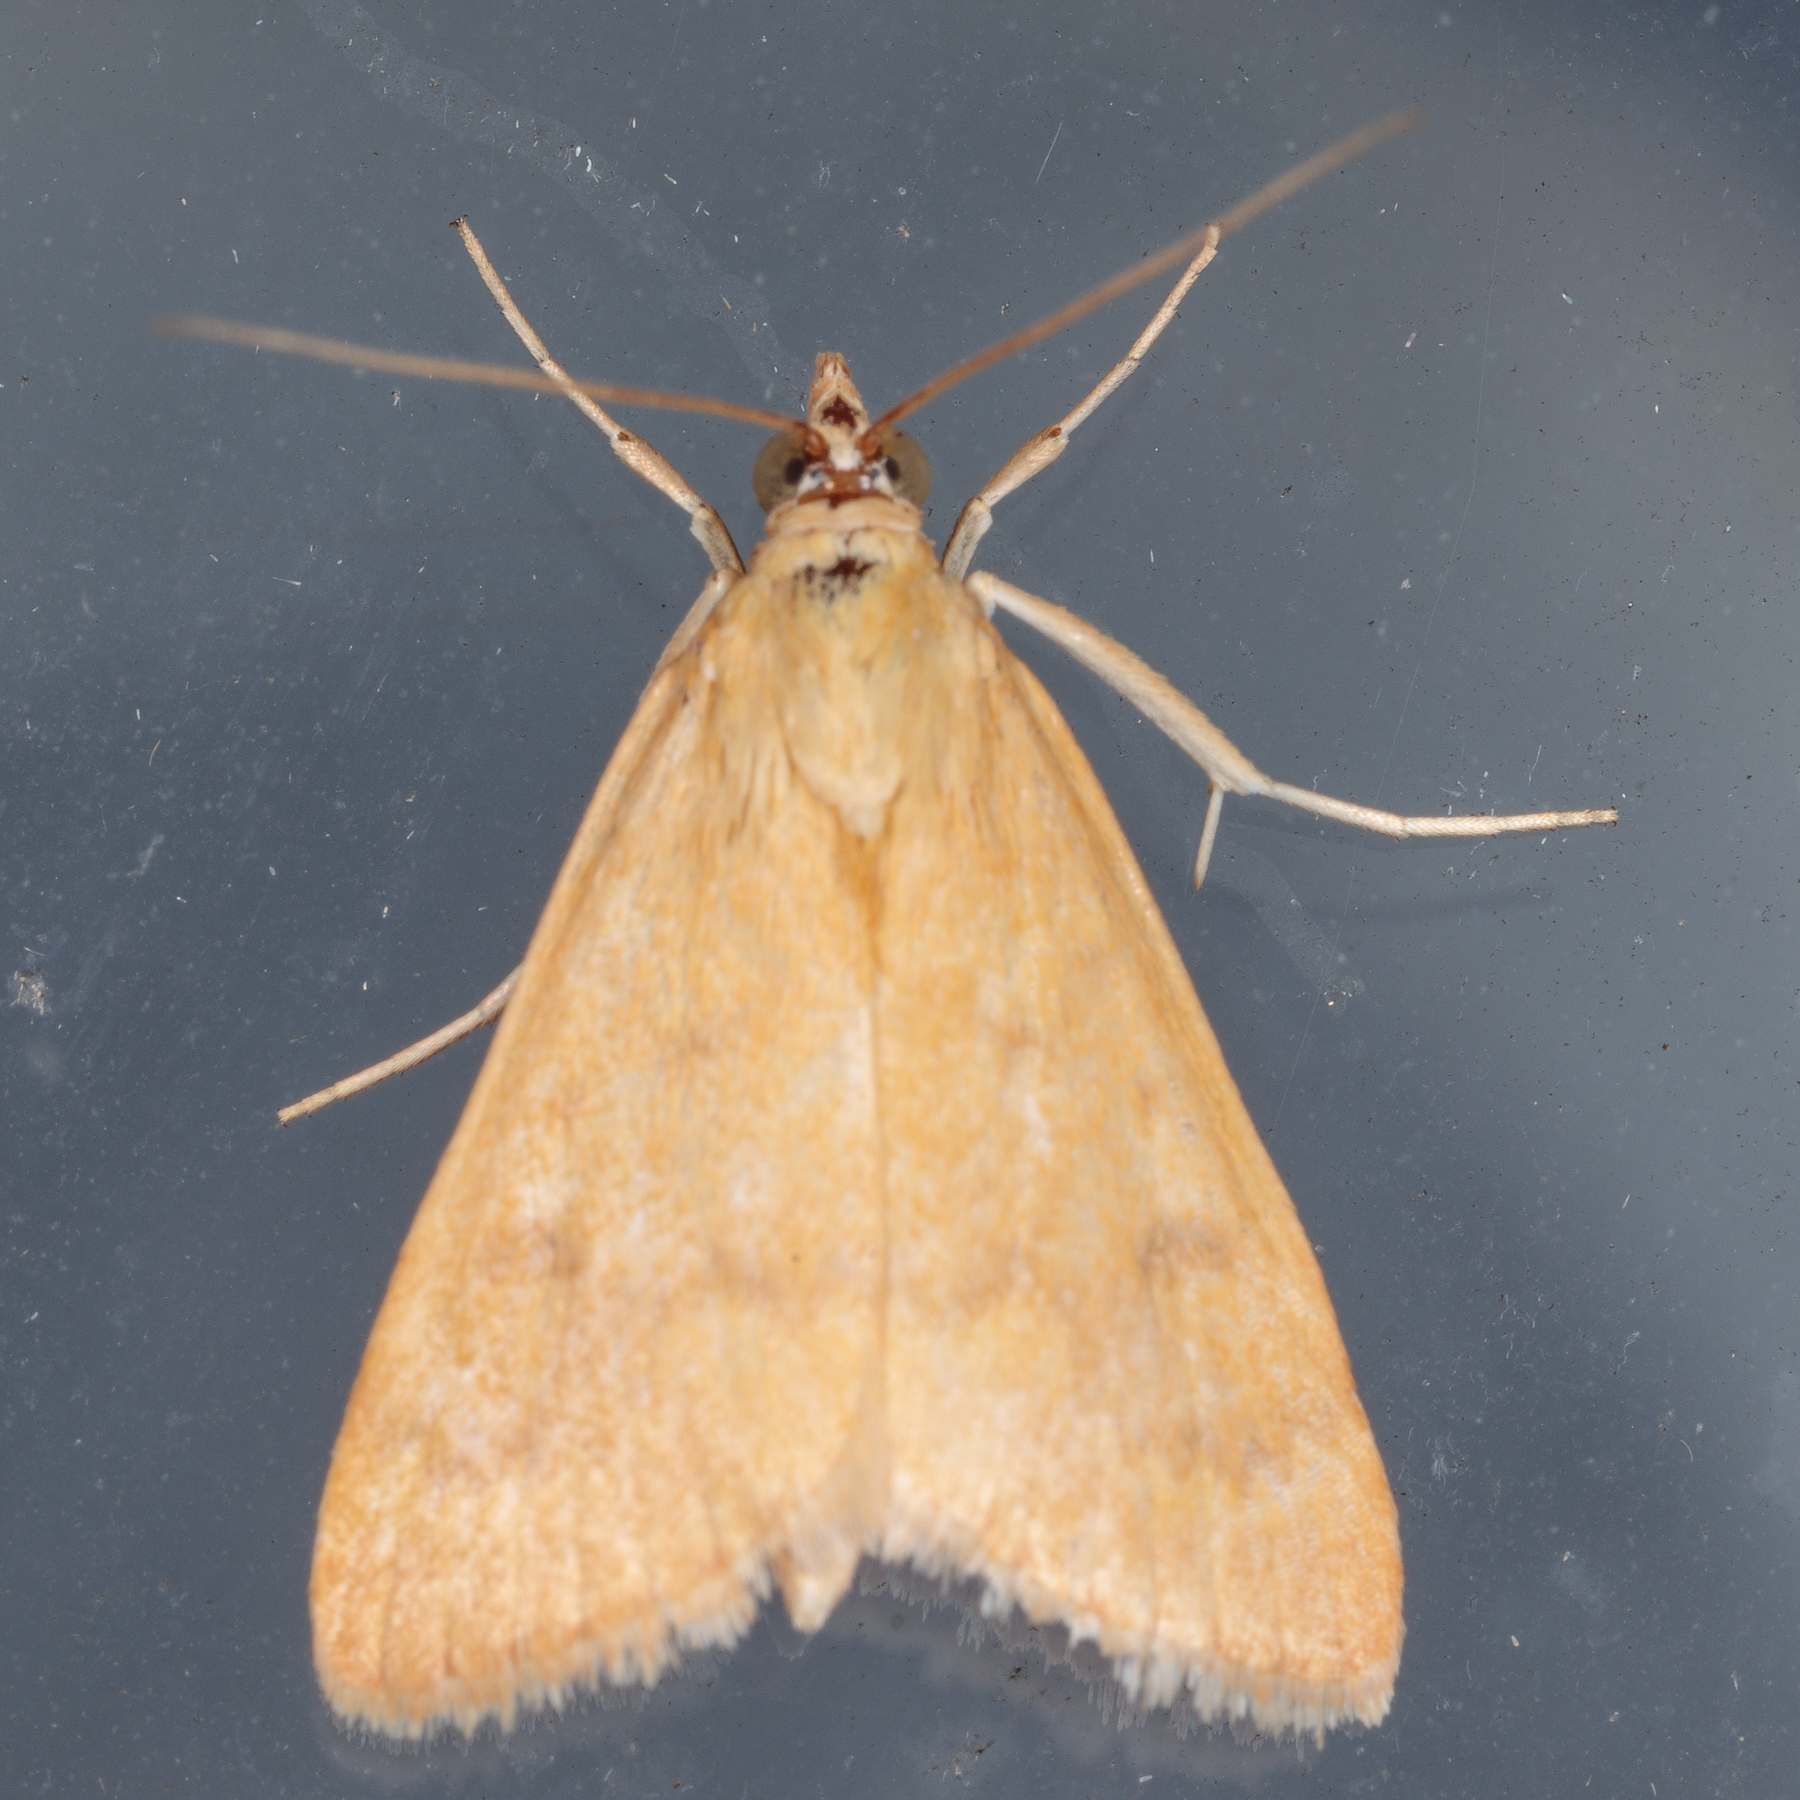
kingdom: Animalia
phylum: Arthropoda
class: Insecta
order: Lepidoptera
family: Crambidae
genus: Achyra
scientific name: Achyra rantalis
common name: Garden webworm
